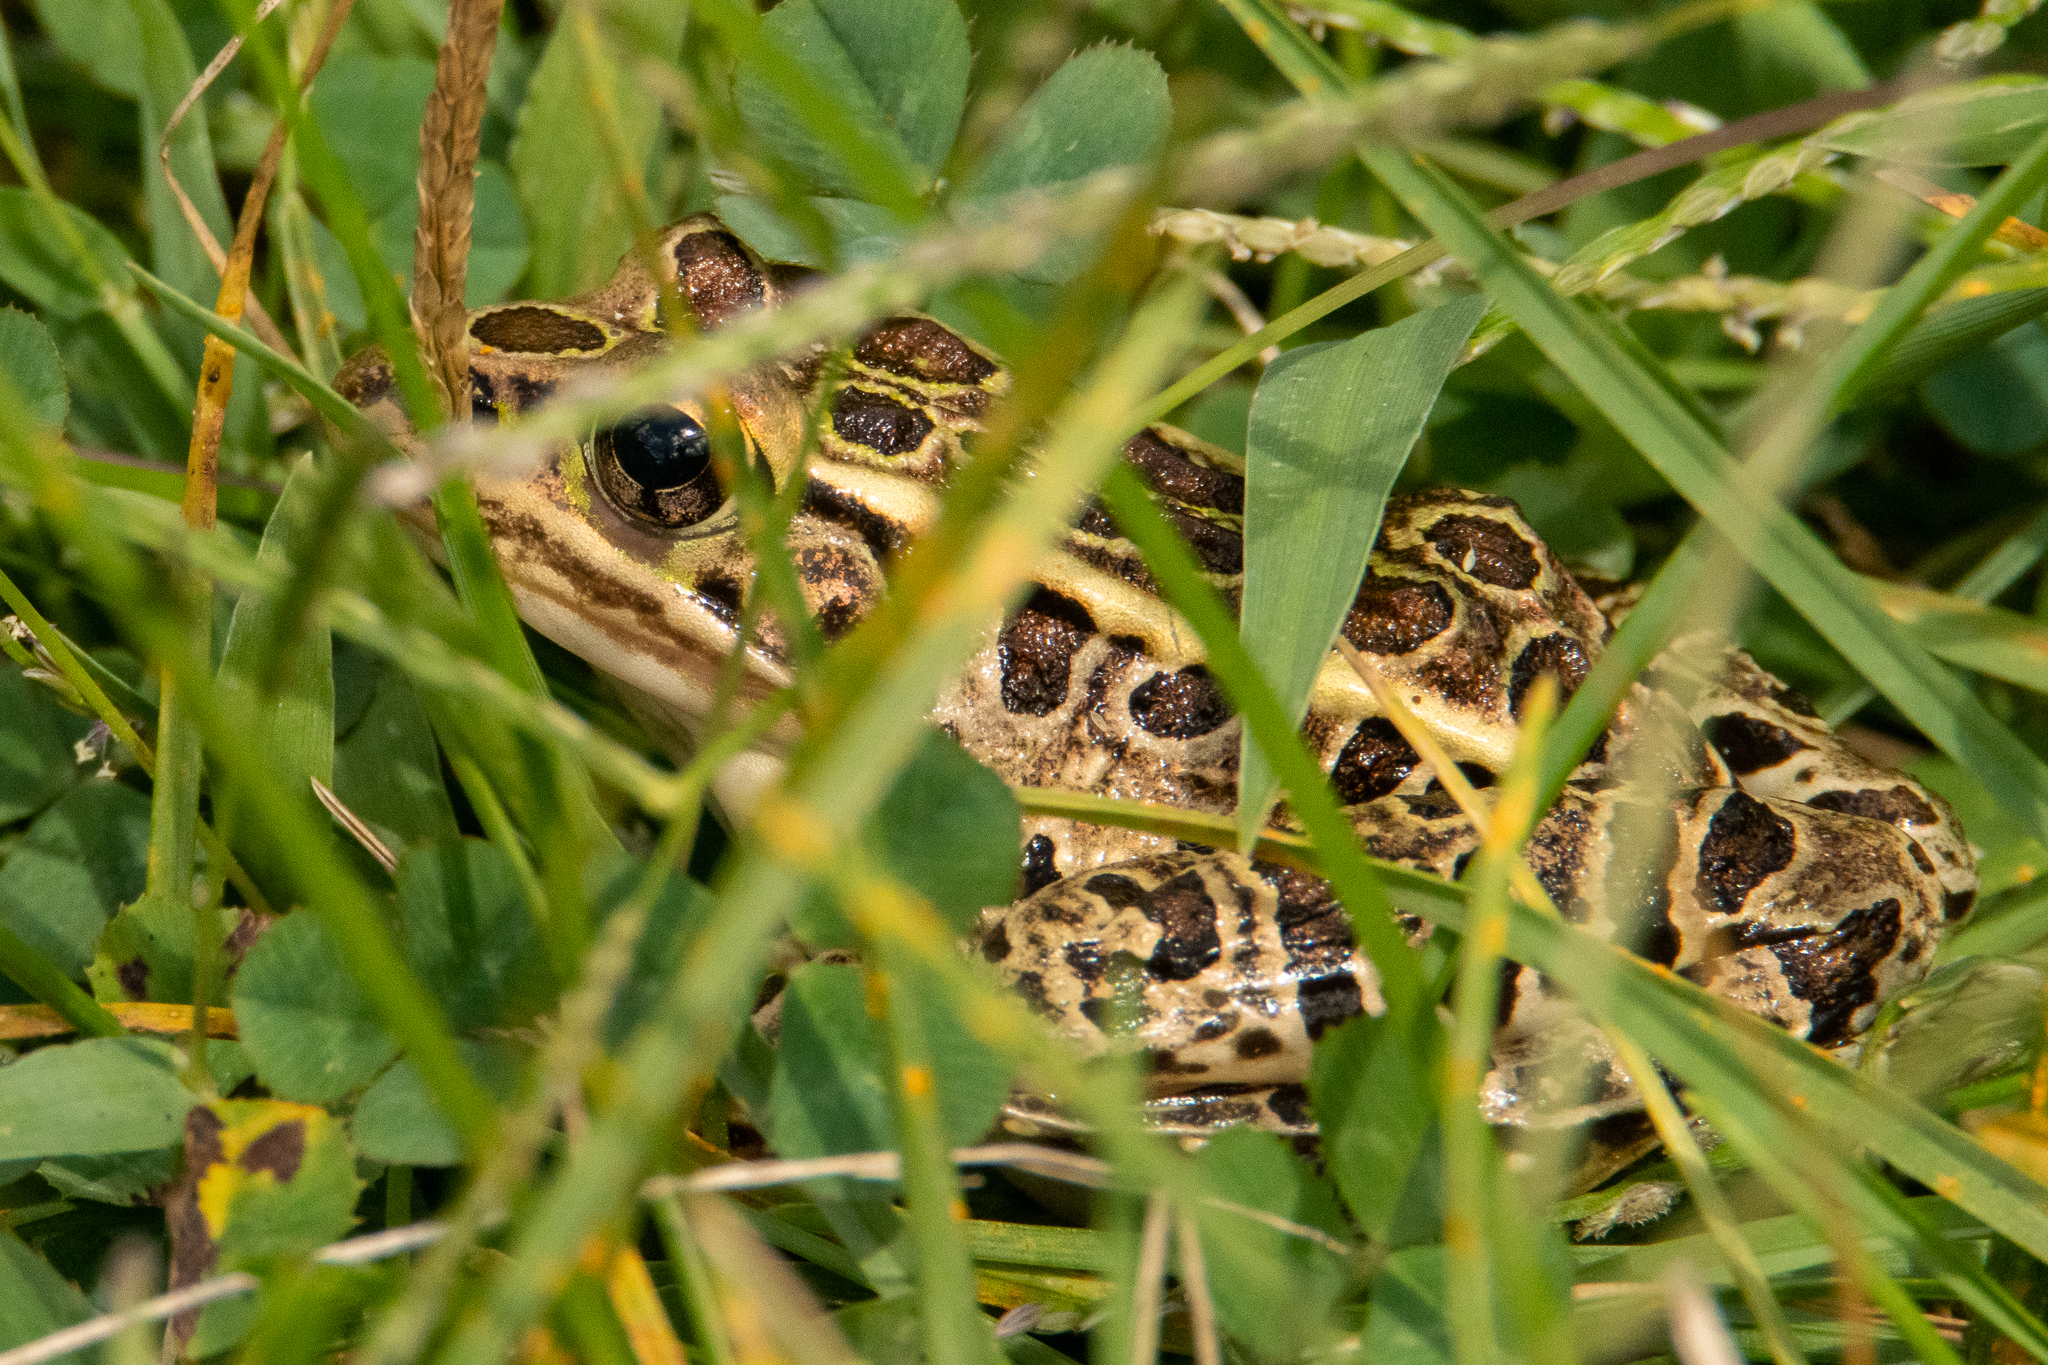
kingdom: Animalia
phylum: Chordata
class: Amphibia
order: Anura
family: Ranidae
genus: Lithobates
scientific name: Lithobates pipiens
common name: Northern leopard frog
